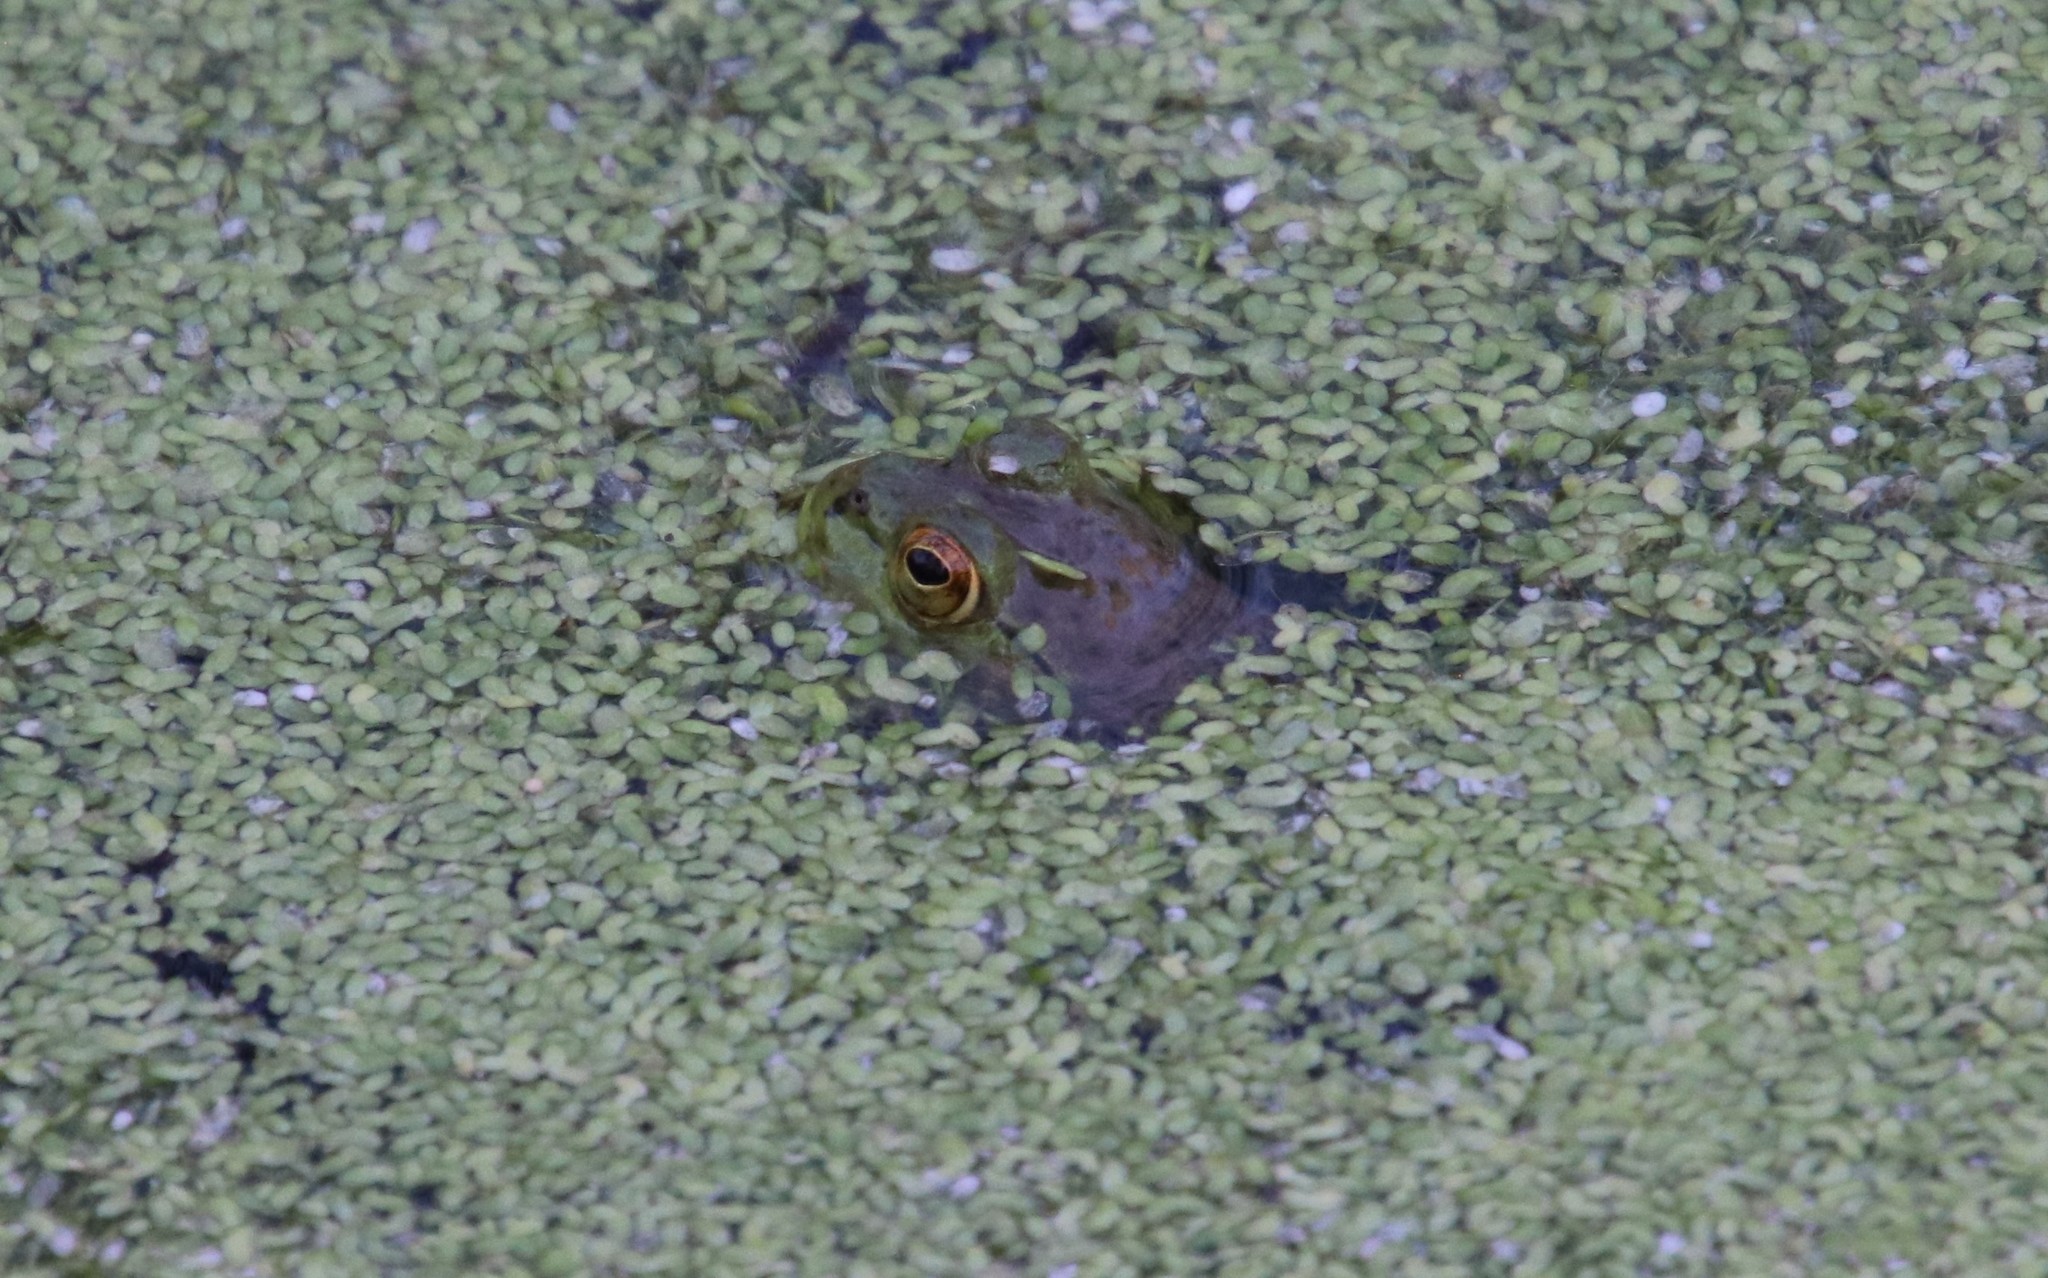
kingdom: Animalia
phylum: Chordata
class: Amphibia
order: Anura
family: Ranidae
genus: Lithobates
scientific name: Lithobates catesbeianus
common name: American bullfrog
